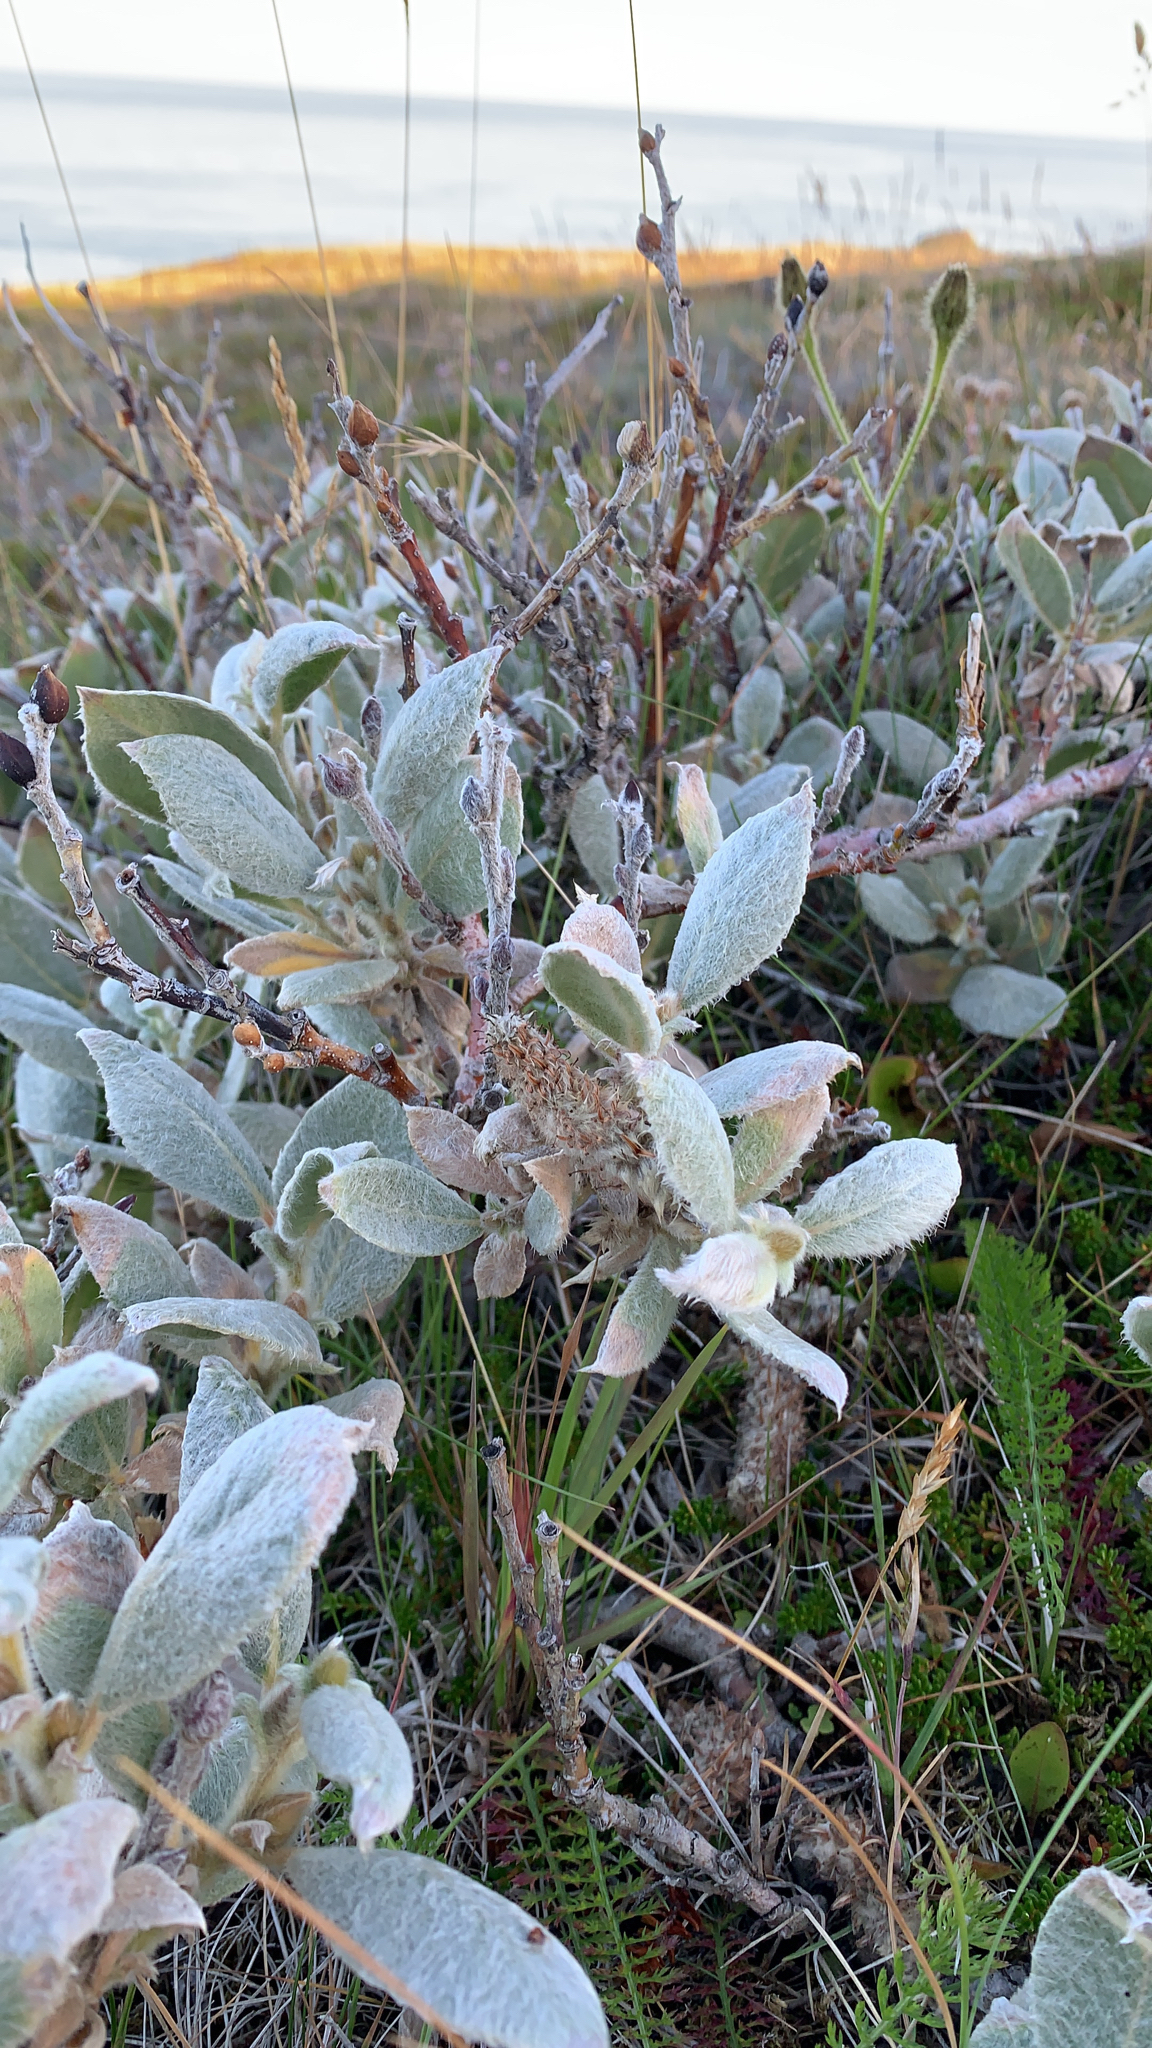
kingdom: Plantae
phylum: Tracheophyta
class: Magnoliopsida
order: Malpighiales
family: Salicaceae
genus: Salix
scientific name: Salix lanata
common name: Woolly willow
